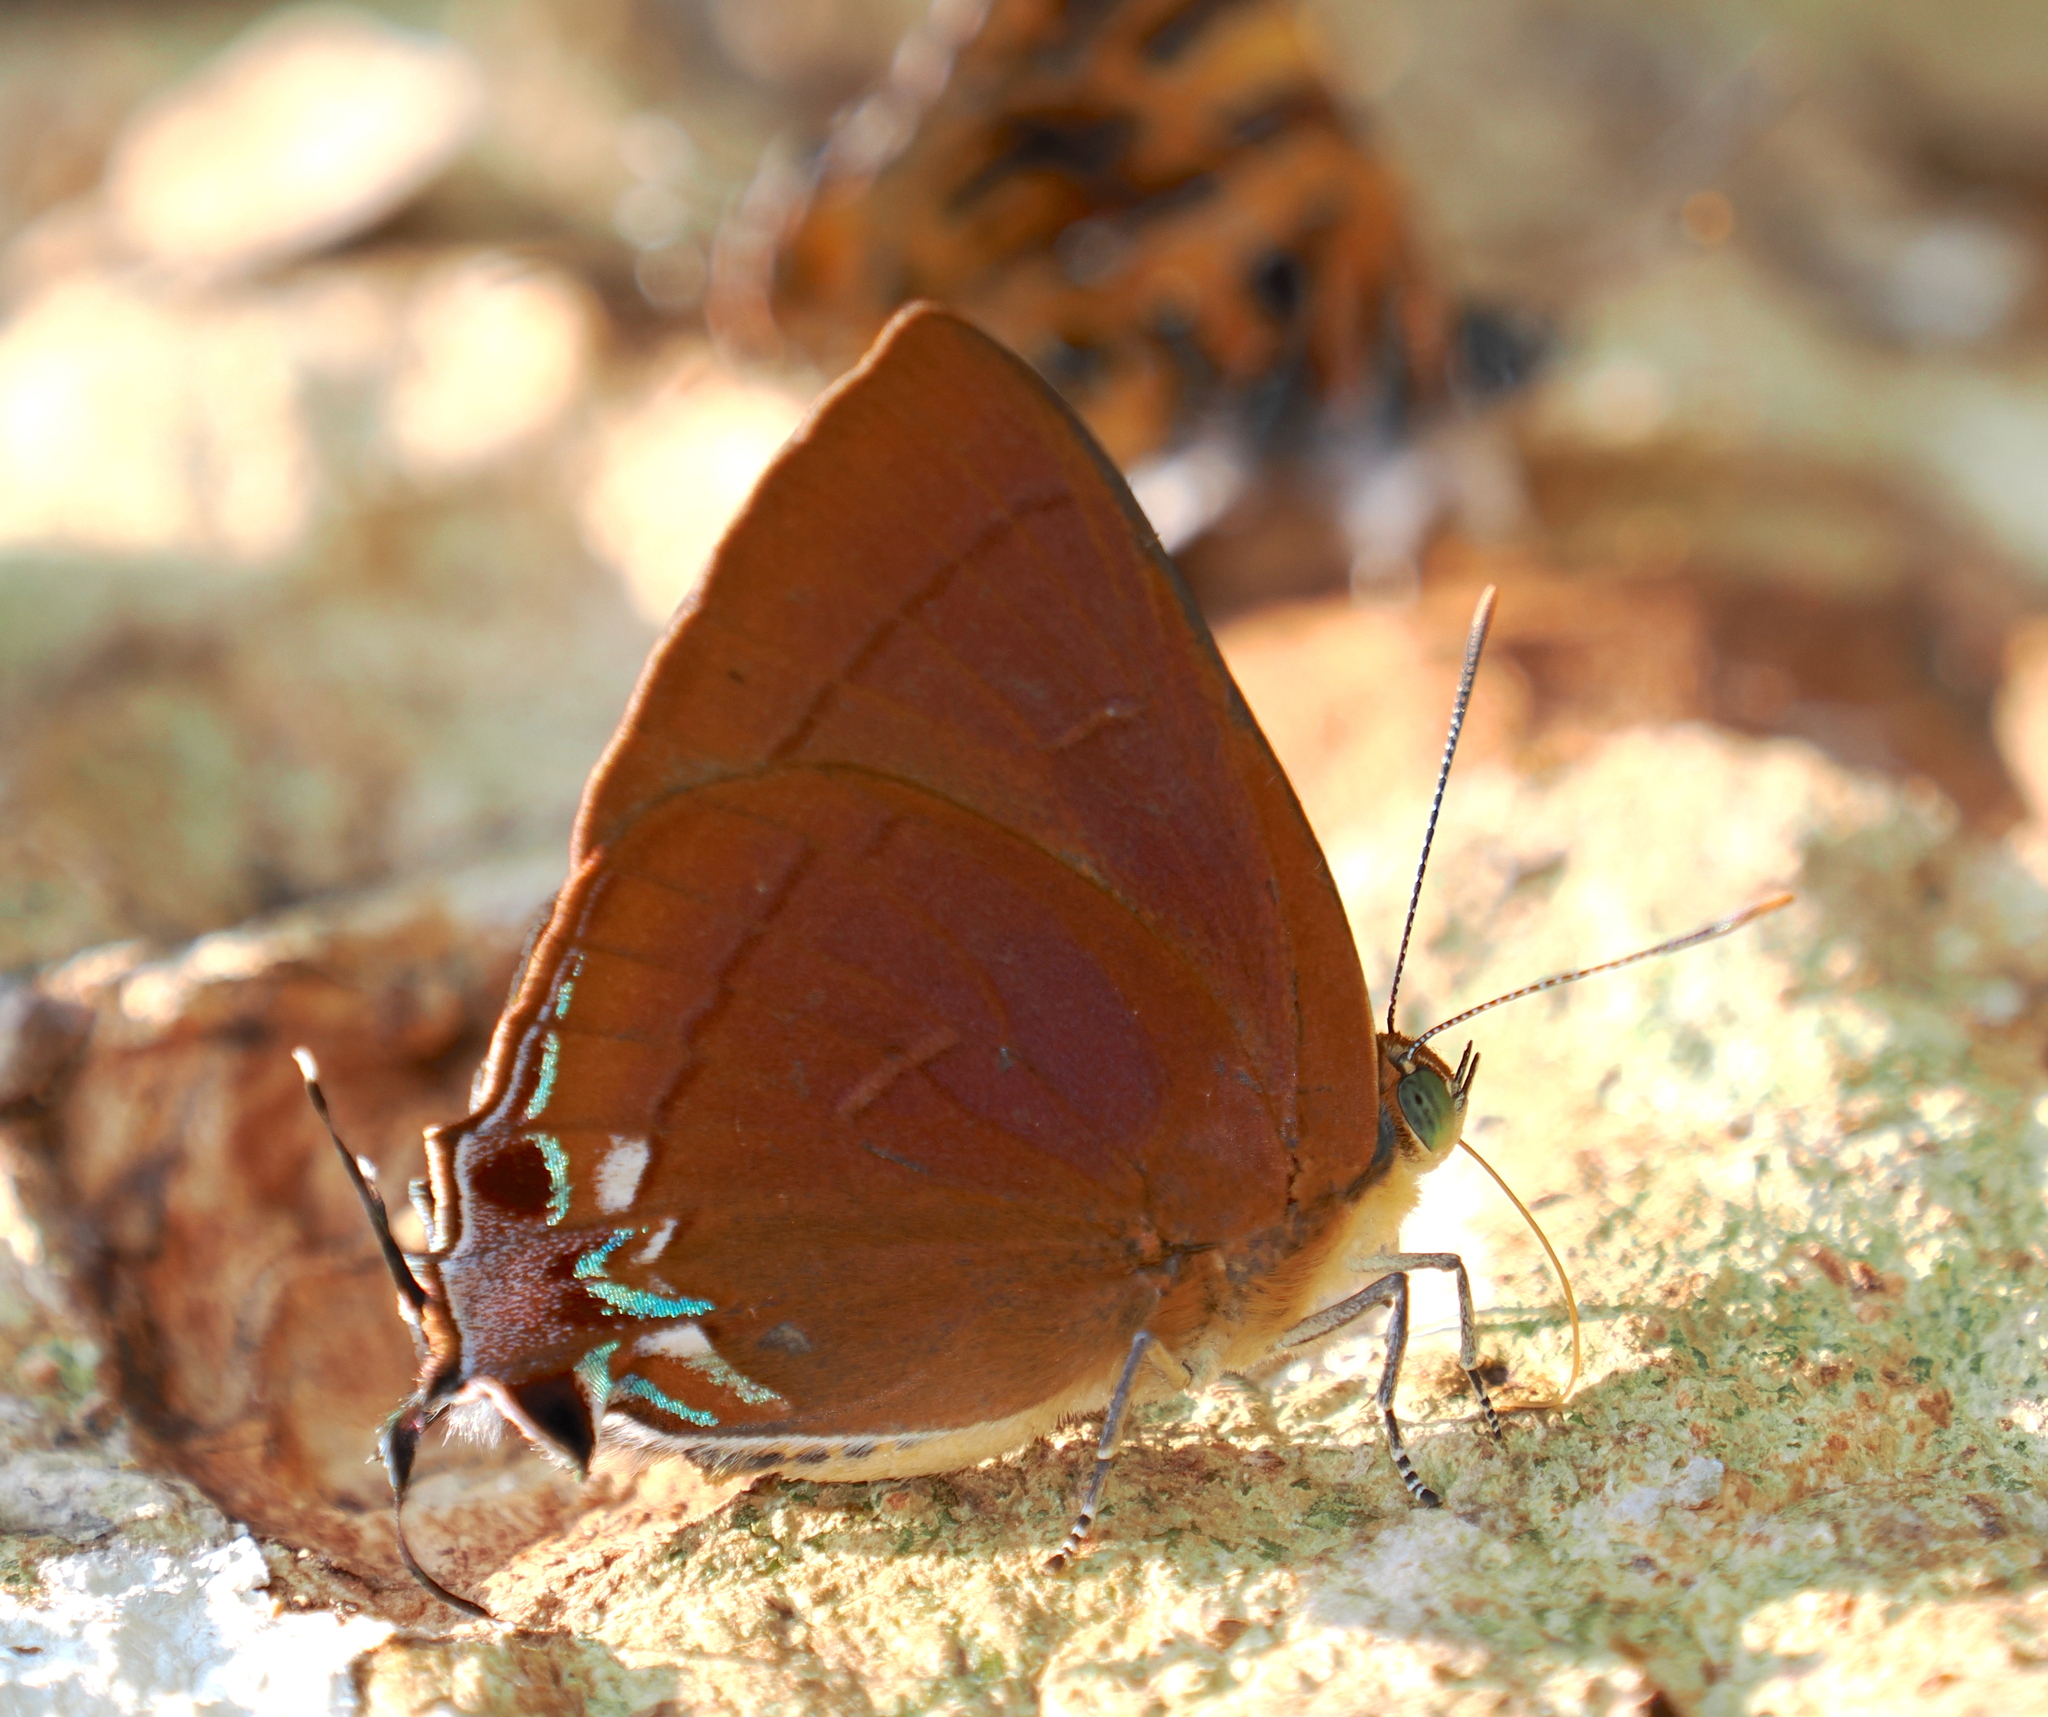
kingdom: Animalia
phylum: Arthropoda
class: Insecta
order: Lepidoptera
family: Lycaenidae
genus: Remelana
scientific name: Remelana jangala
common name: Chocolate royal
